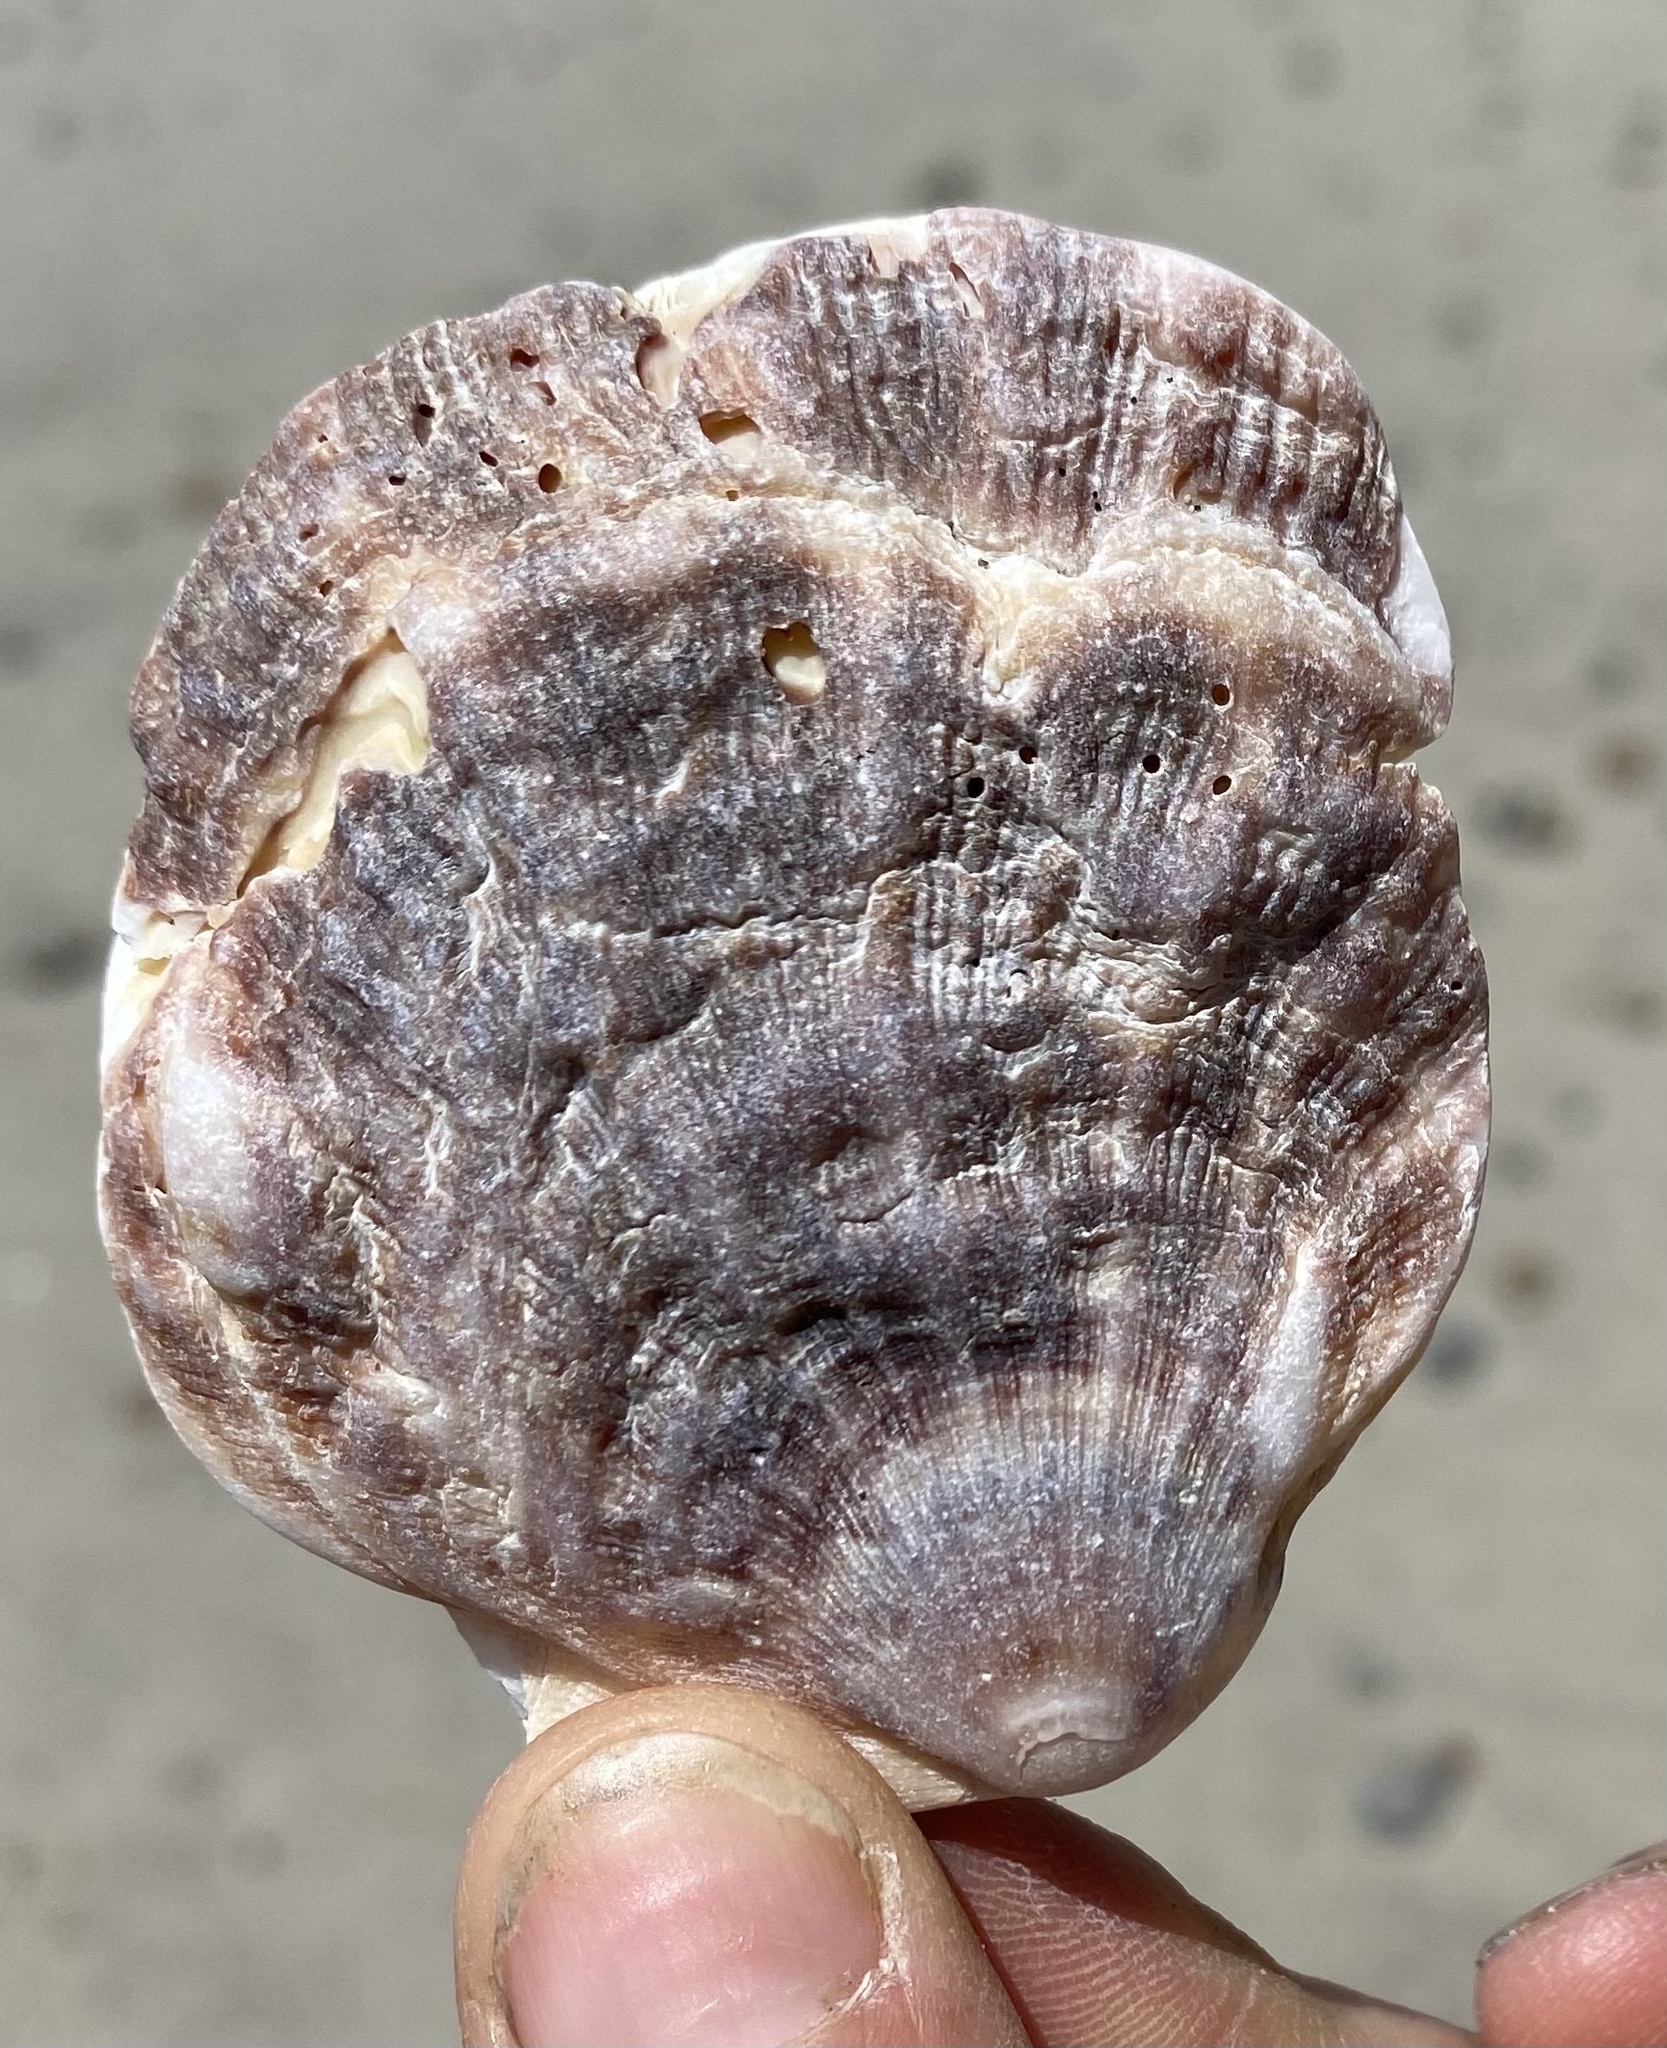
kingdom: Animalia
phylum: Mollusca
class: Bivalvia
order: Pectinida
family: Pectinidae
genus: Crassadoma
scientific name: Crassadoma gigantea
